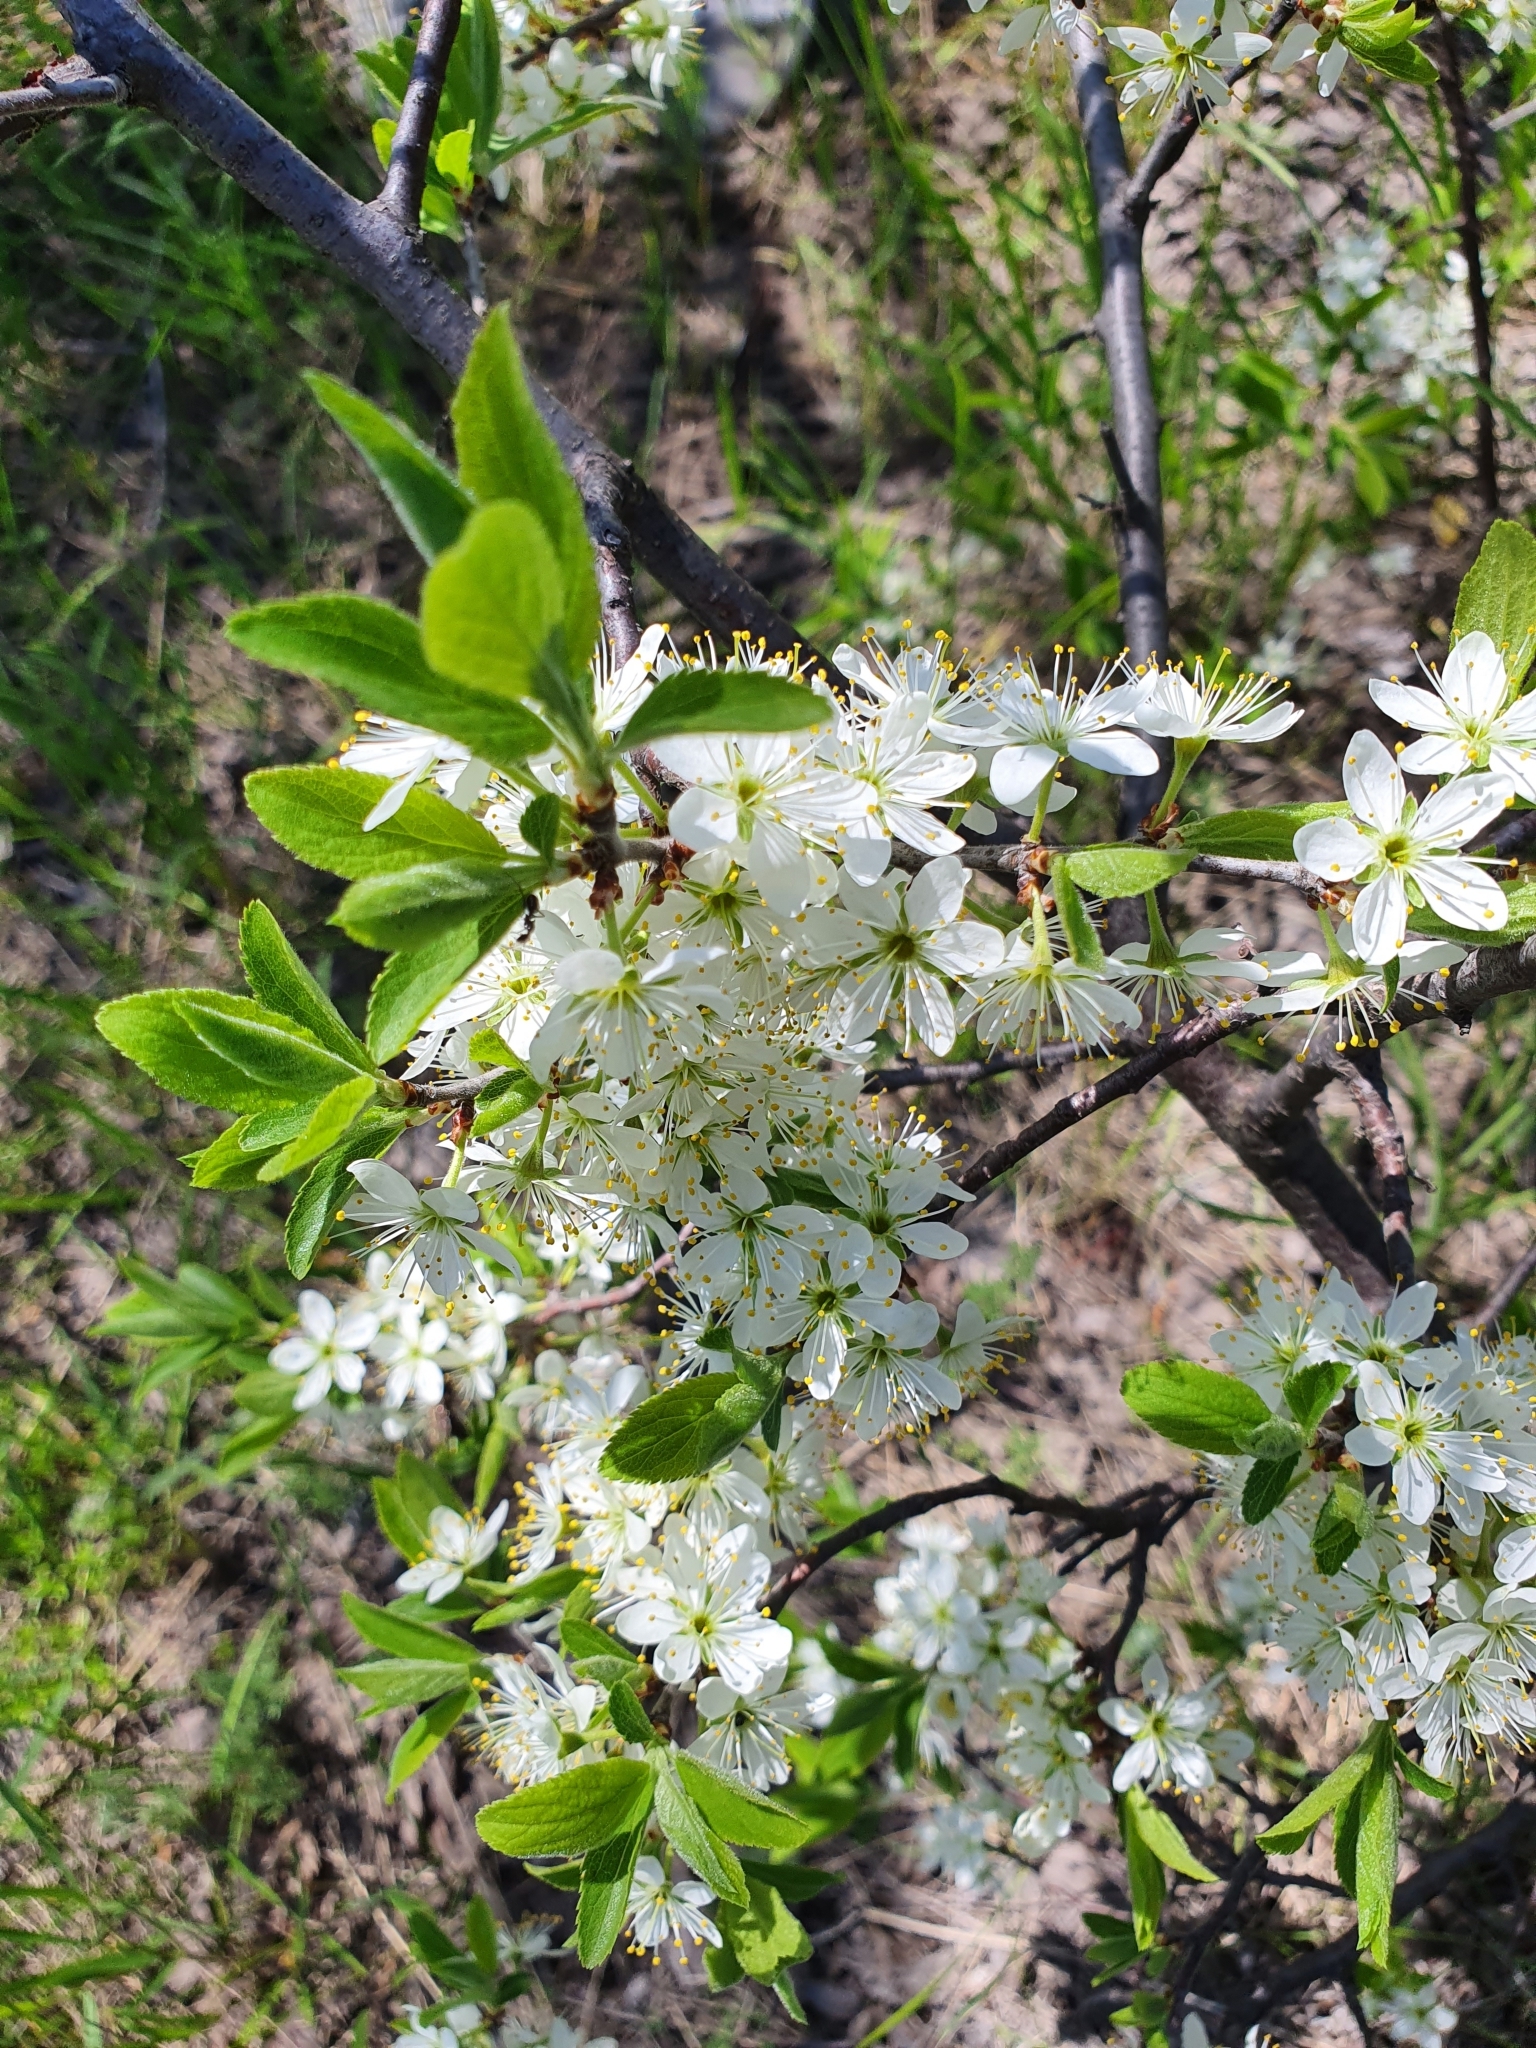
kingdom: Plantae
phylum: Tracheophyta
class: Magnoliopsida
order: Rosales
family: Rosaceae
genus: Prunus
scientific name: Prunus spinosa
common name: Blackthorn
